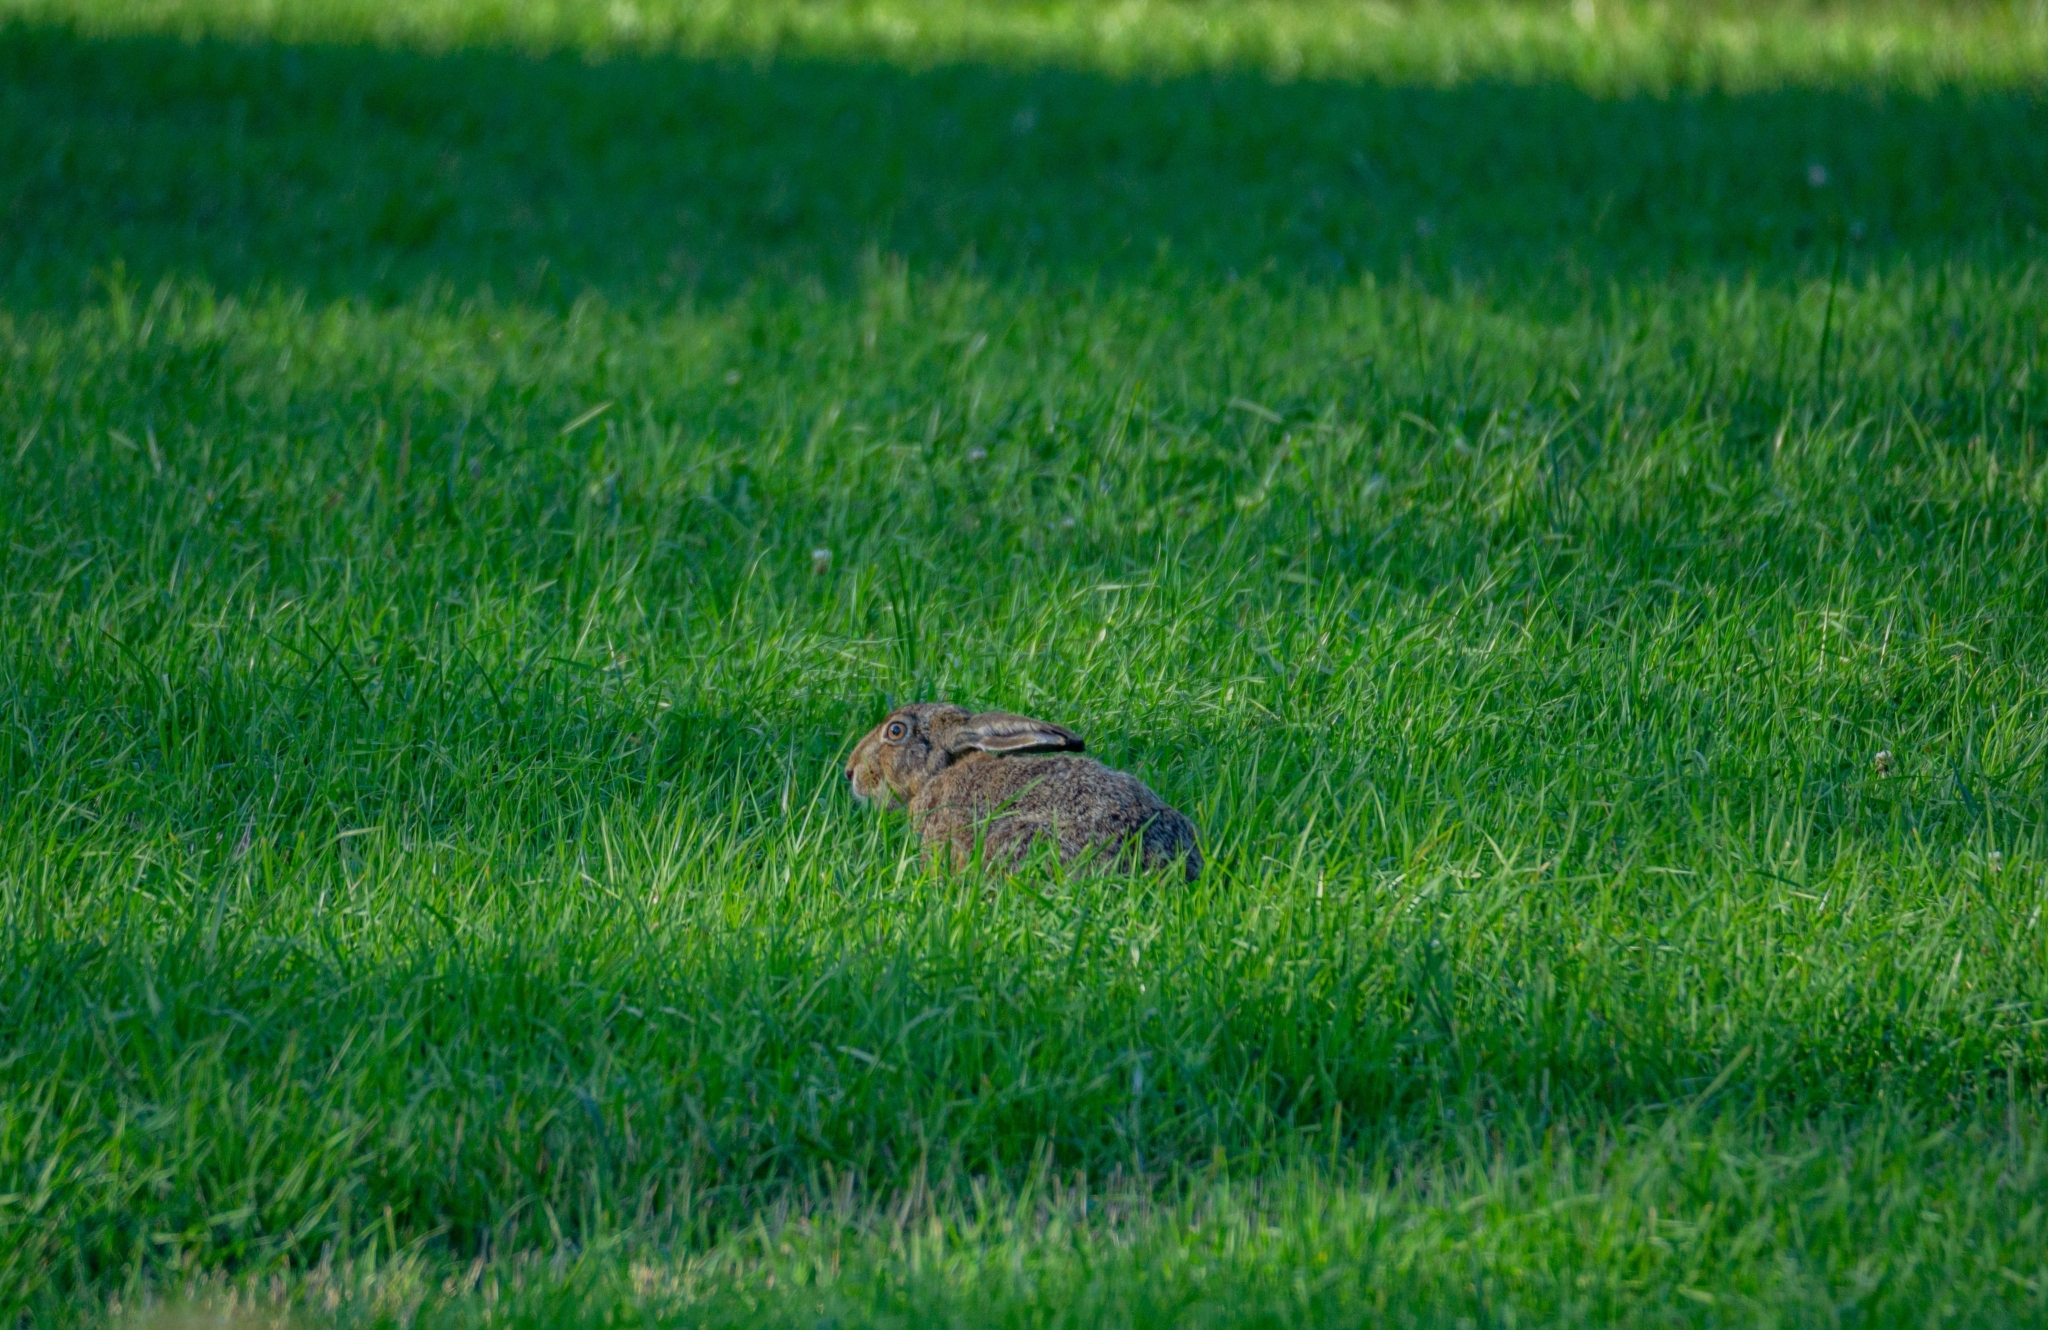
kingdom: Animalia
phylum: Chordata
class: Mammalia
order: Lagomorpha
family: Leporidae
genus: Lepus
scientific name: Lepus europaeus
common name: European hare
